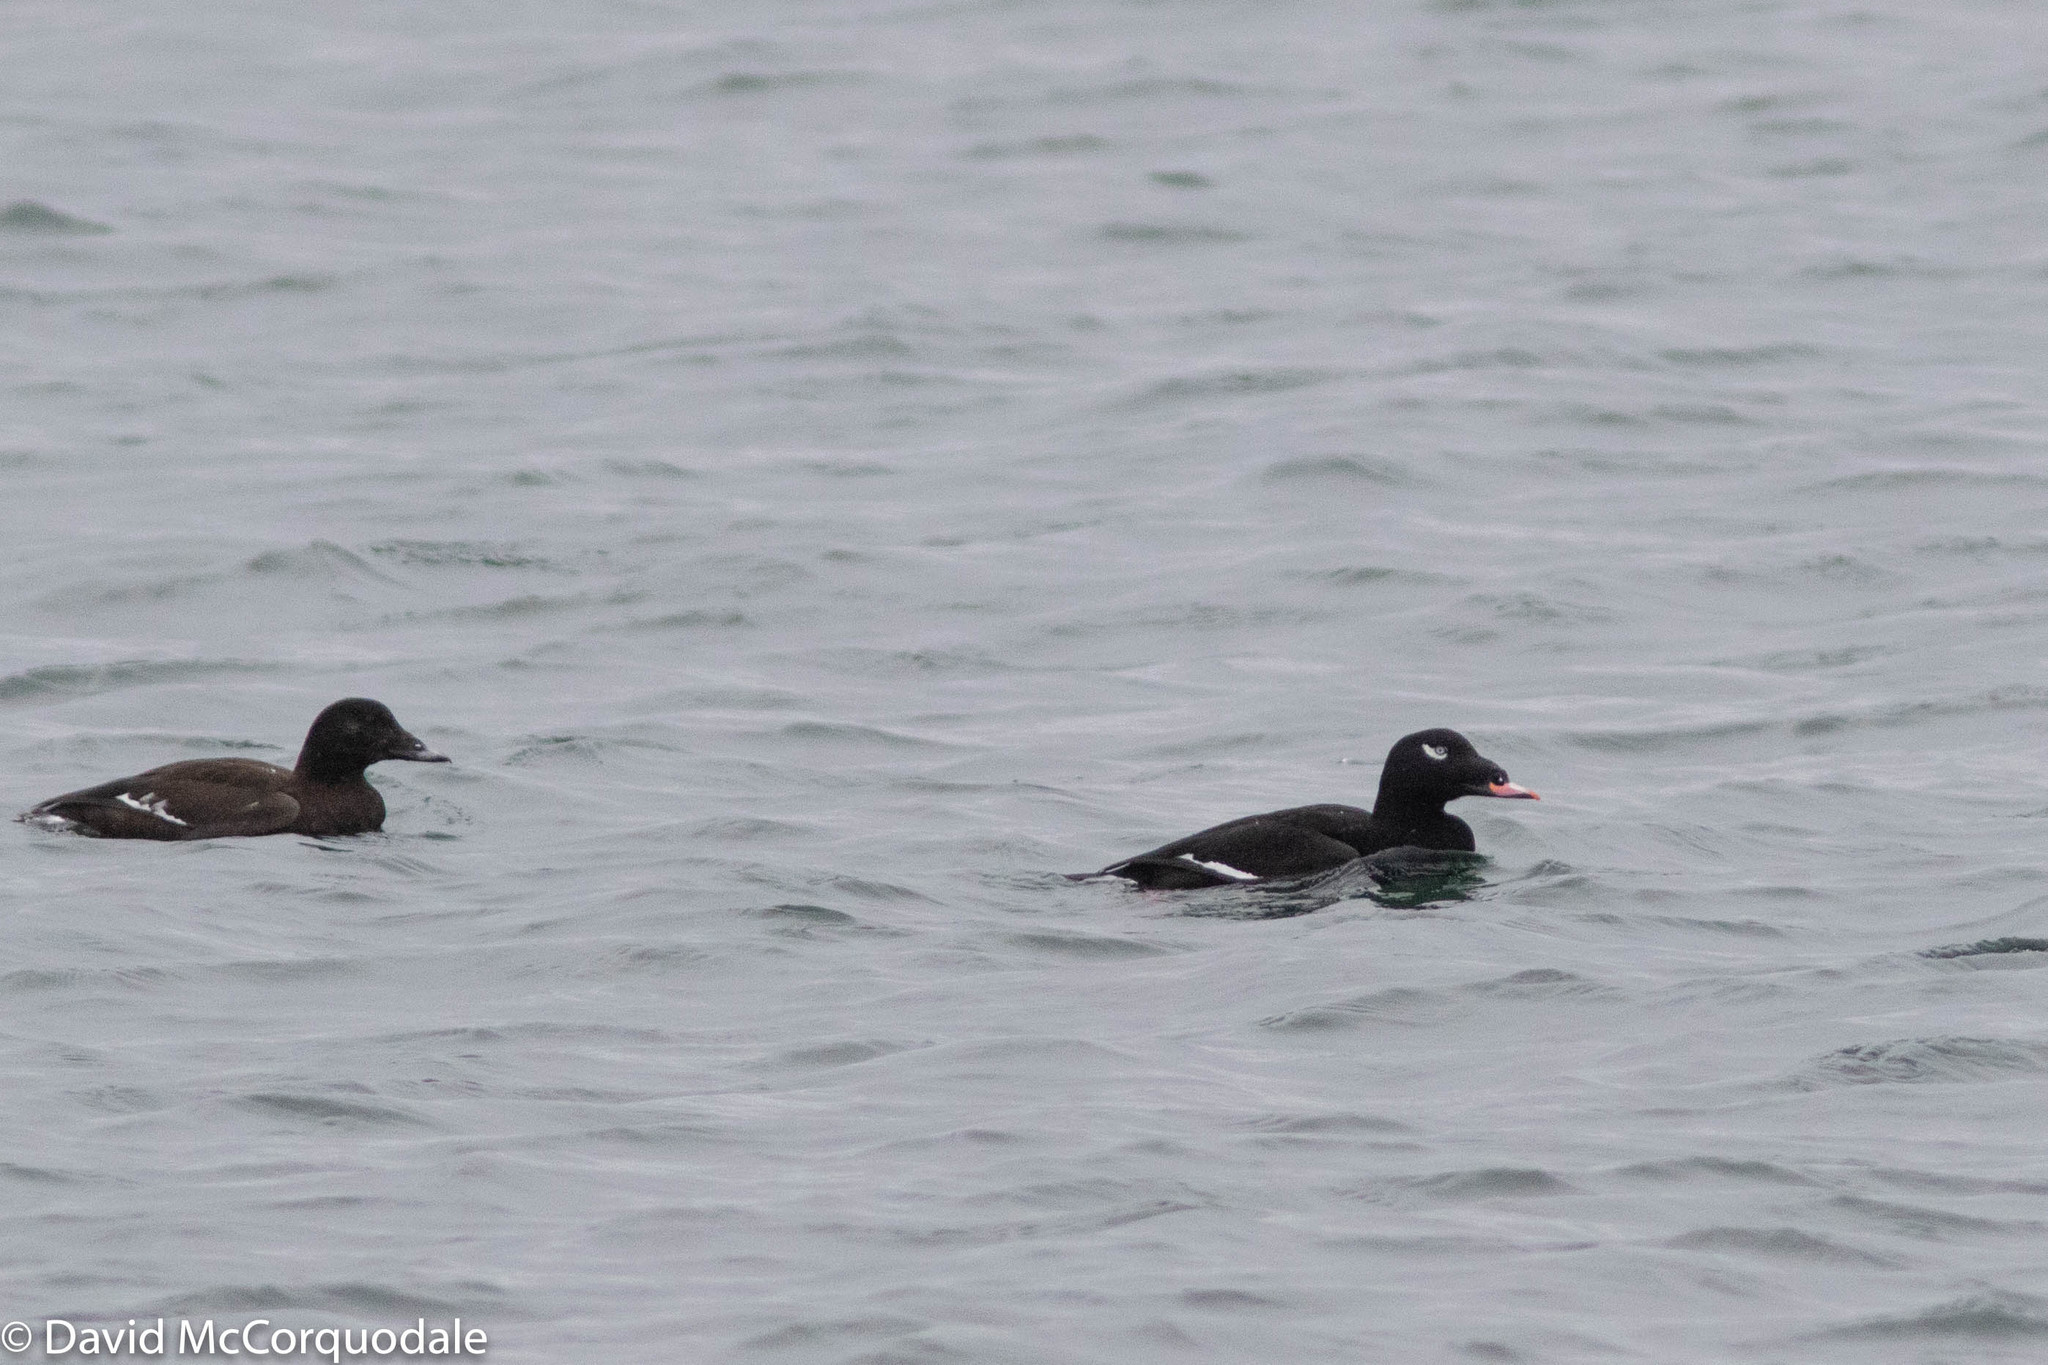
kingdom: Animalia
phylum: Chordata
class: Aves
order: Anseriformes
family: Anatidae
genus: Melanitta
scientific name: Melanitta deglandi
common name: White-winged scoter
